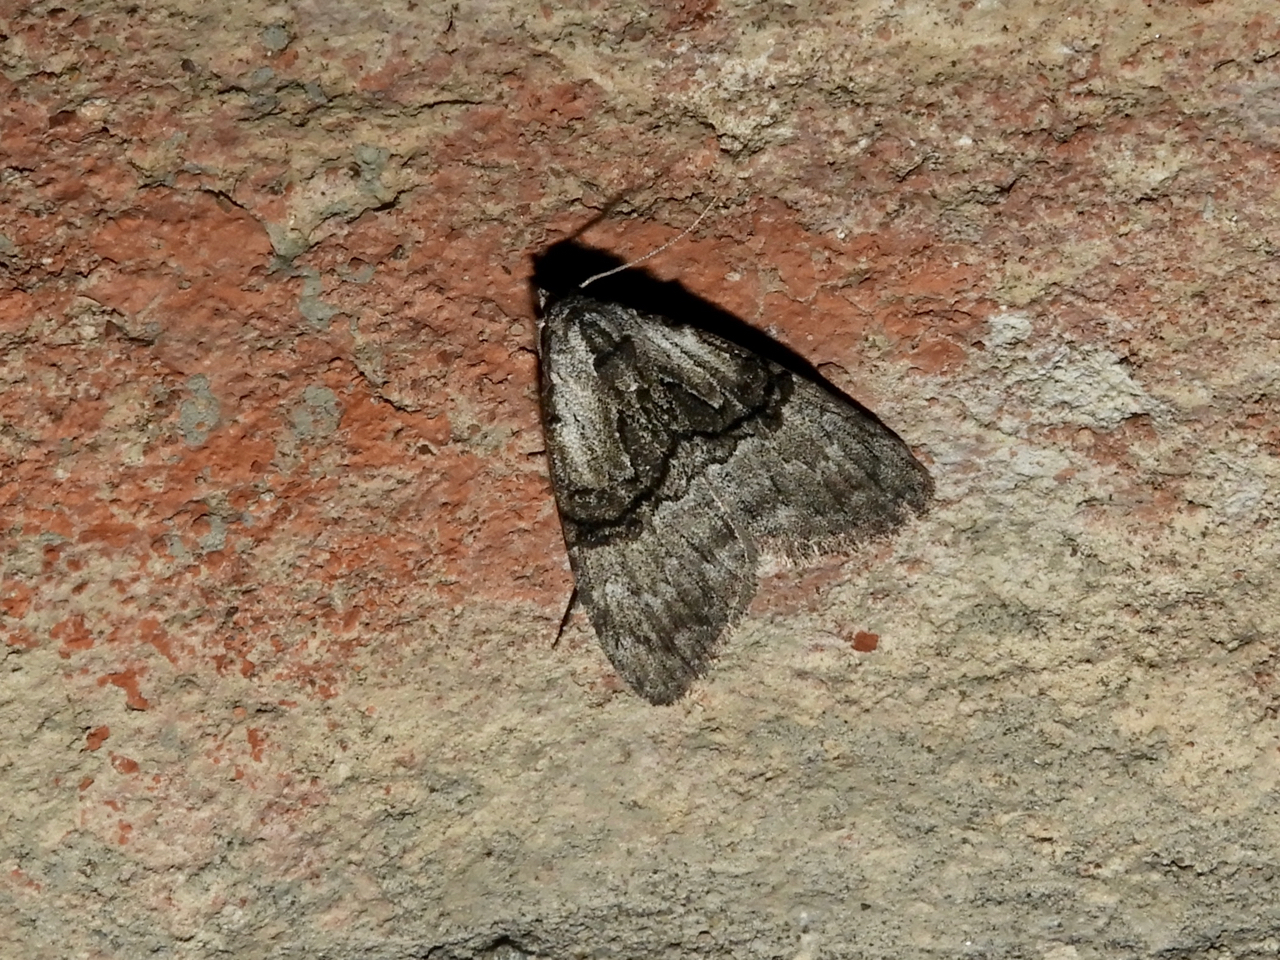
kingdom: Animalia
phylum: Arthropoda
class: Insecta
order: Lepidoptera
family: Nolidae
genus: Meganola
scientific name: Meganola togatulalis
